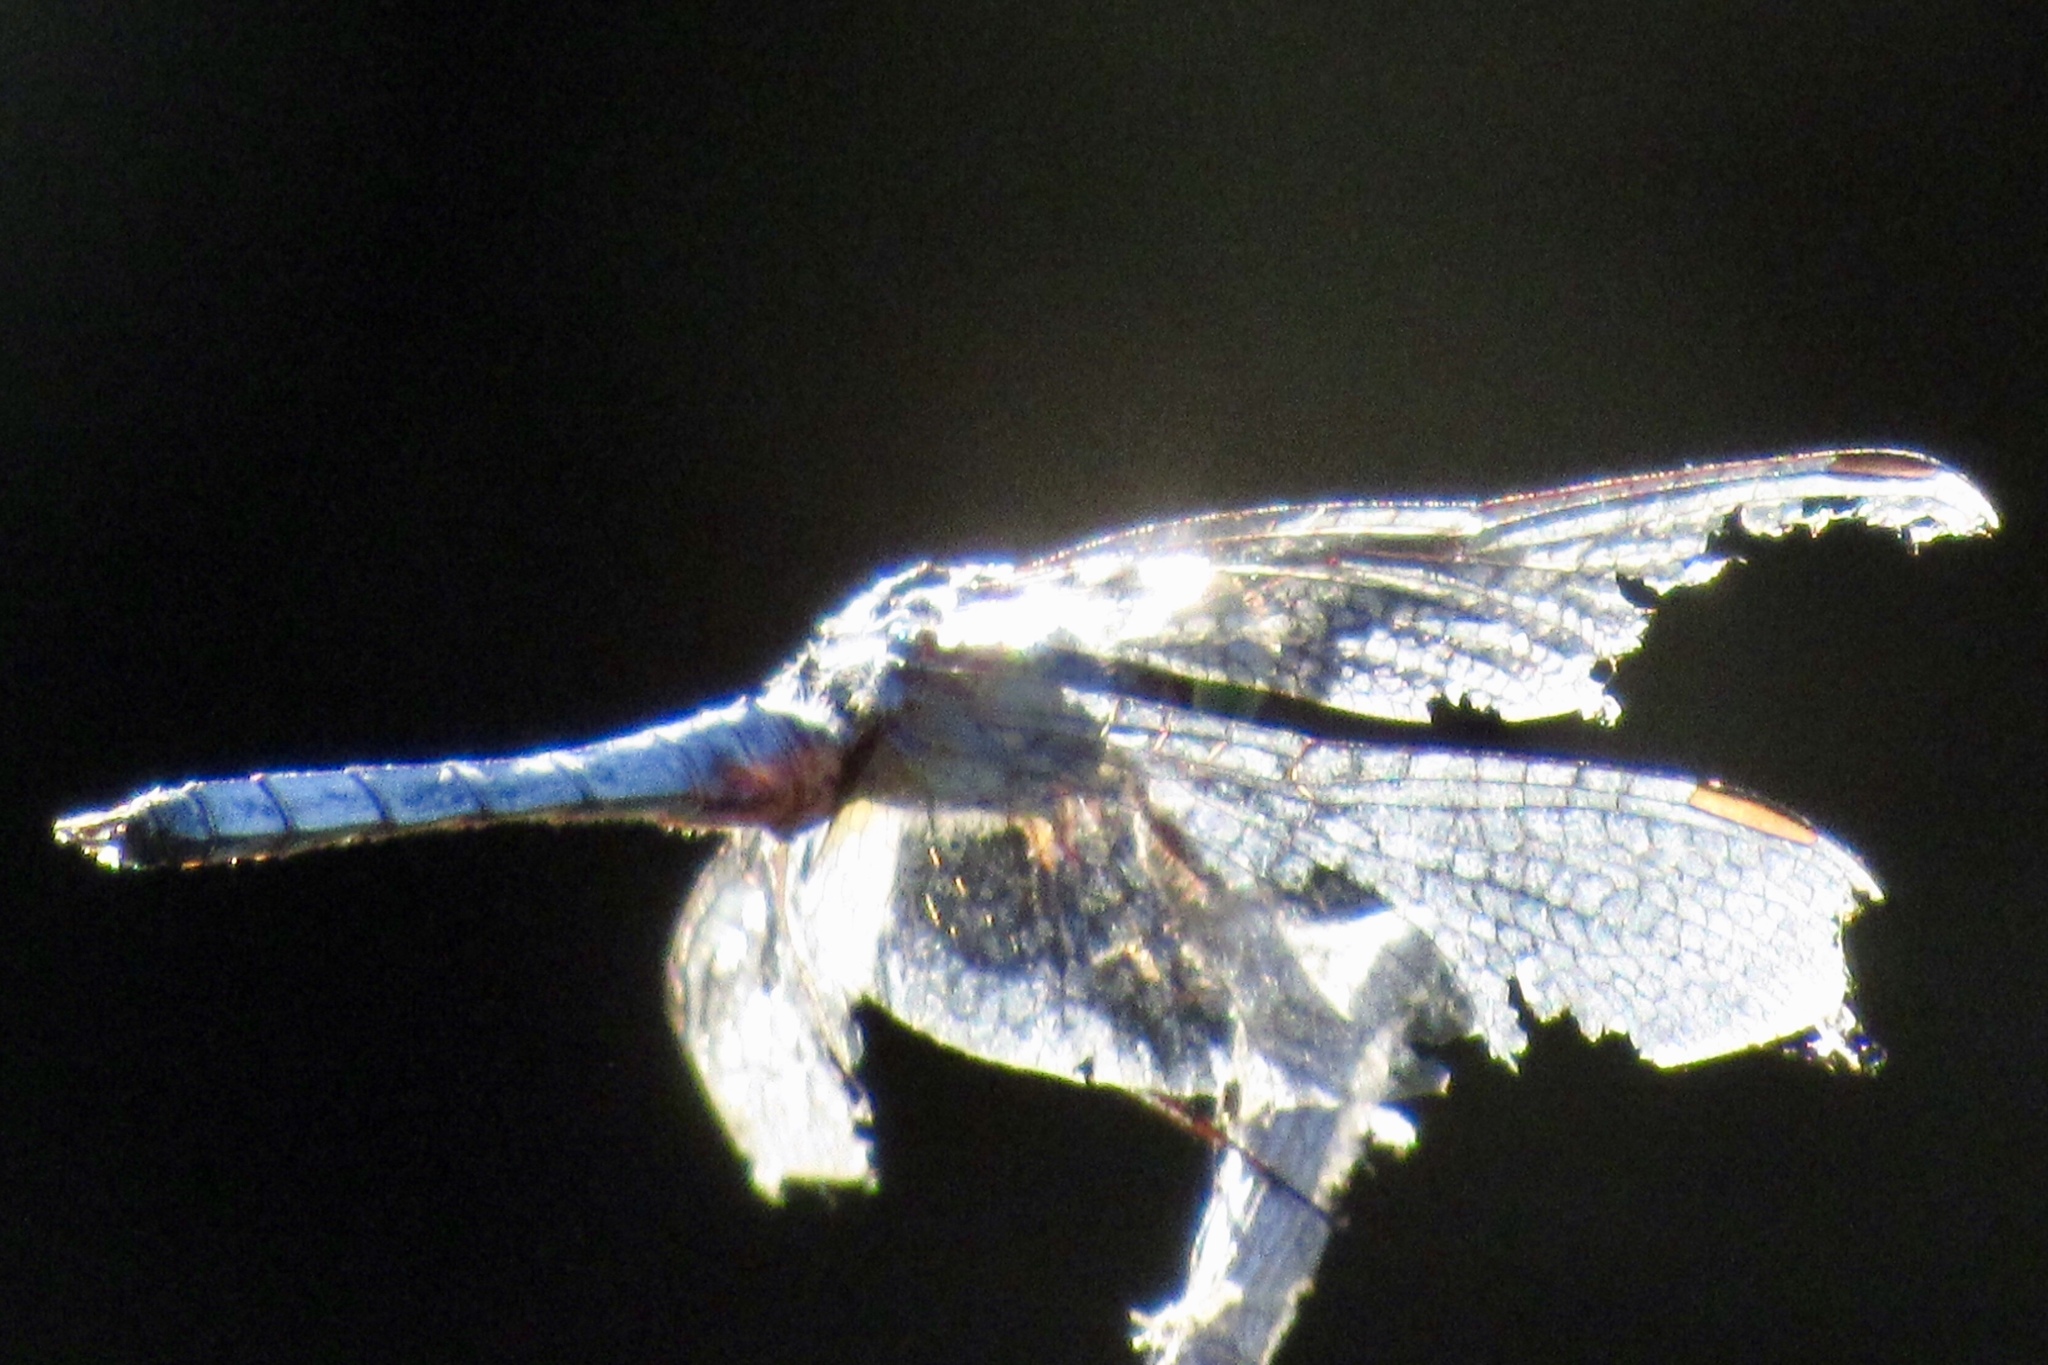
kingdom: Animalia
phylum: Arthropoda
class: Insecta
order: Odonata
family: Libellulidae
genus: Pachydiplax
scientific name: Pachydiplax longipennis
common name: Blue dasher
